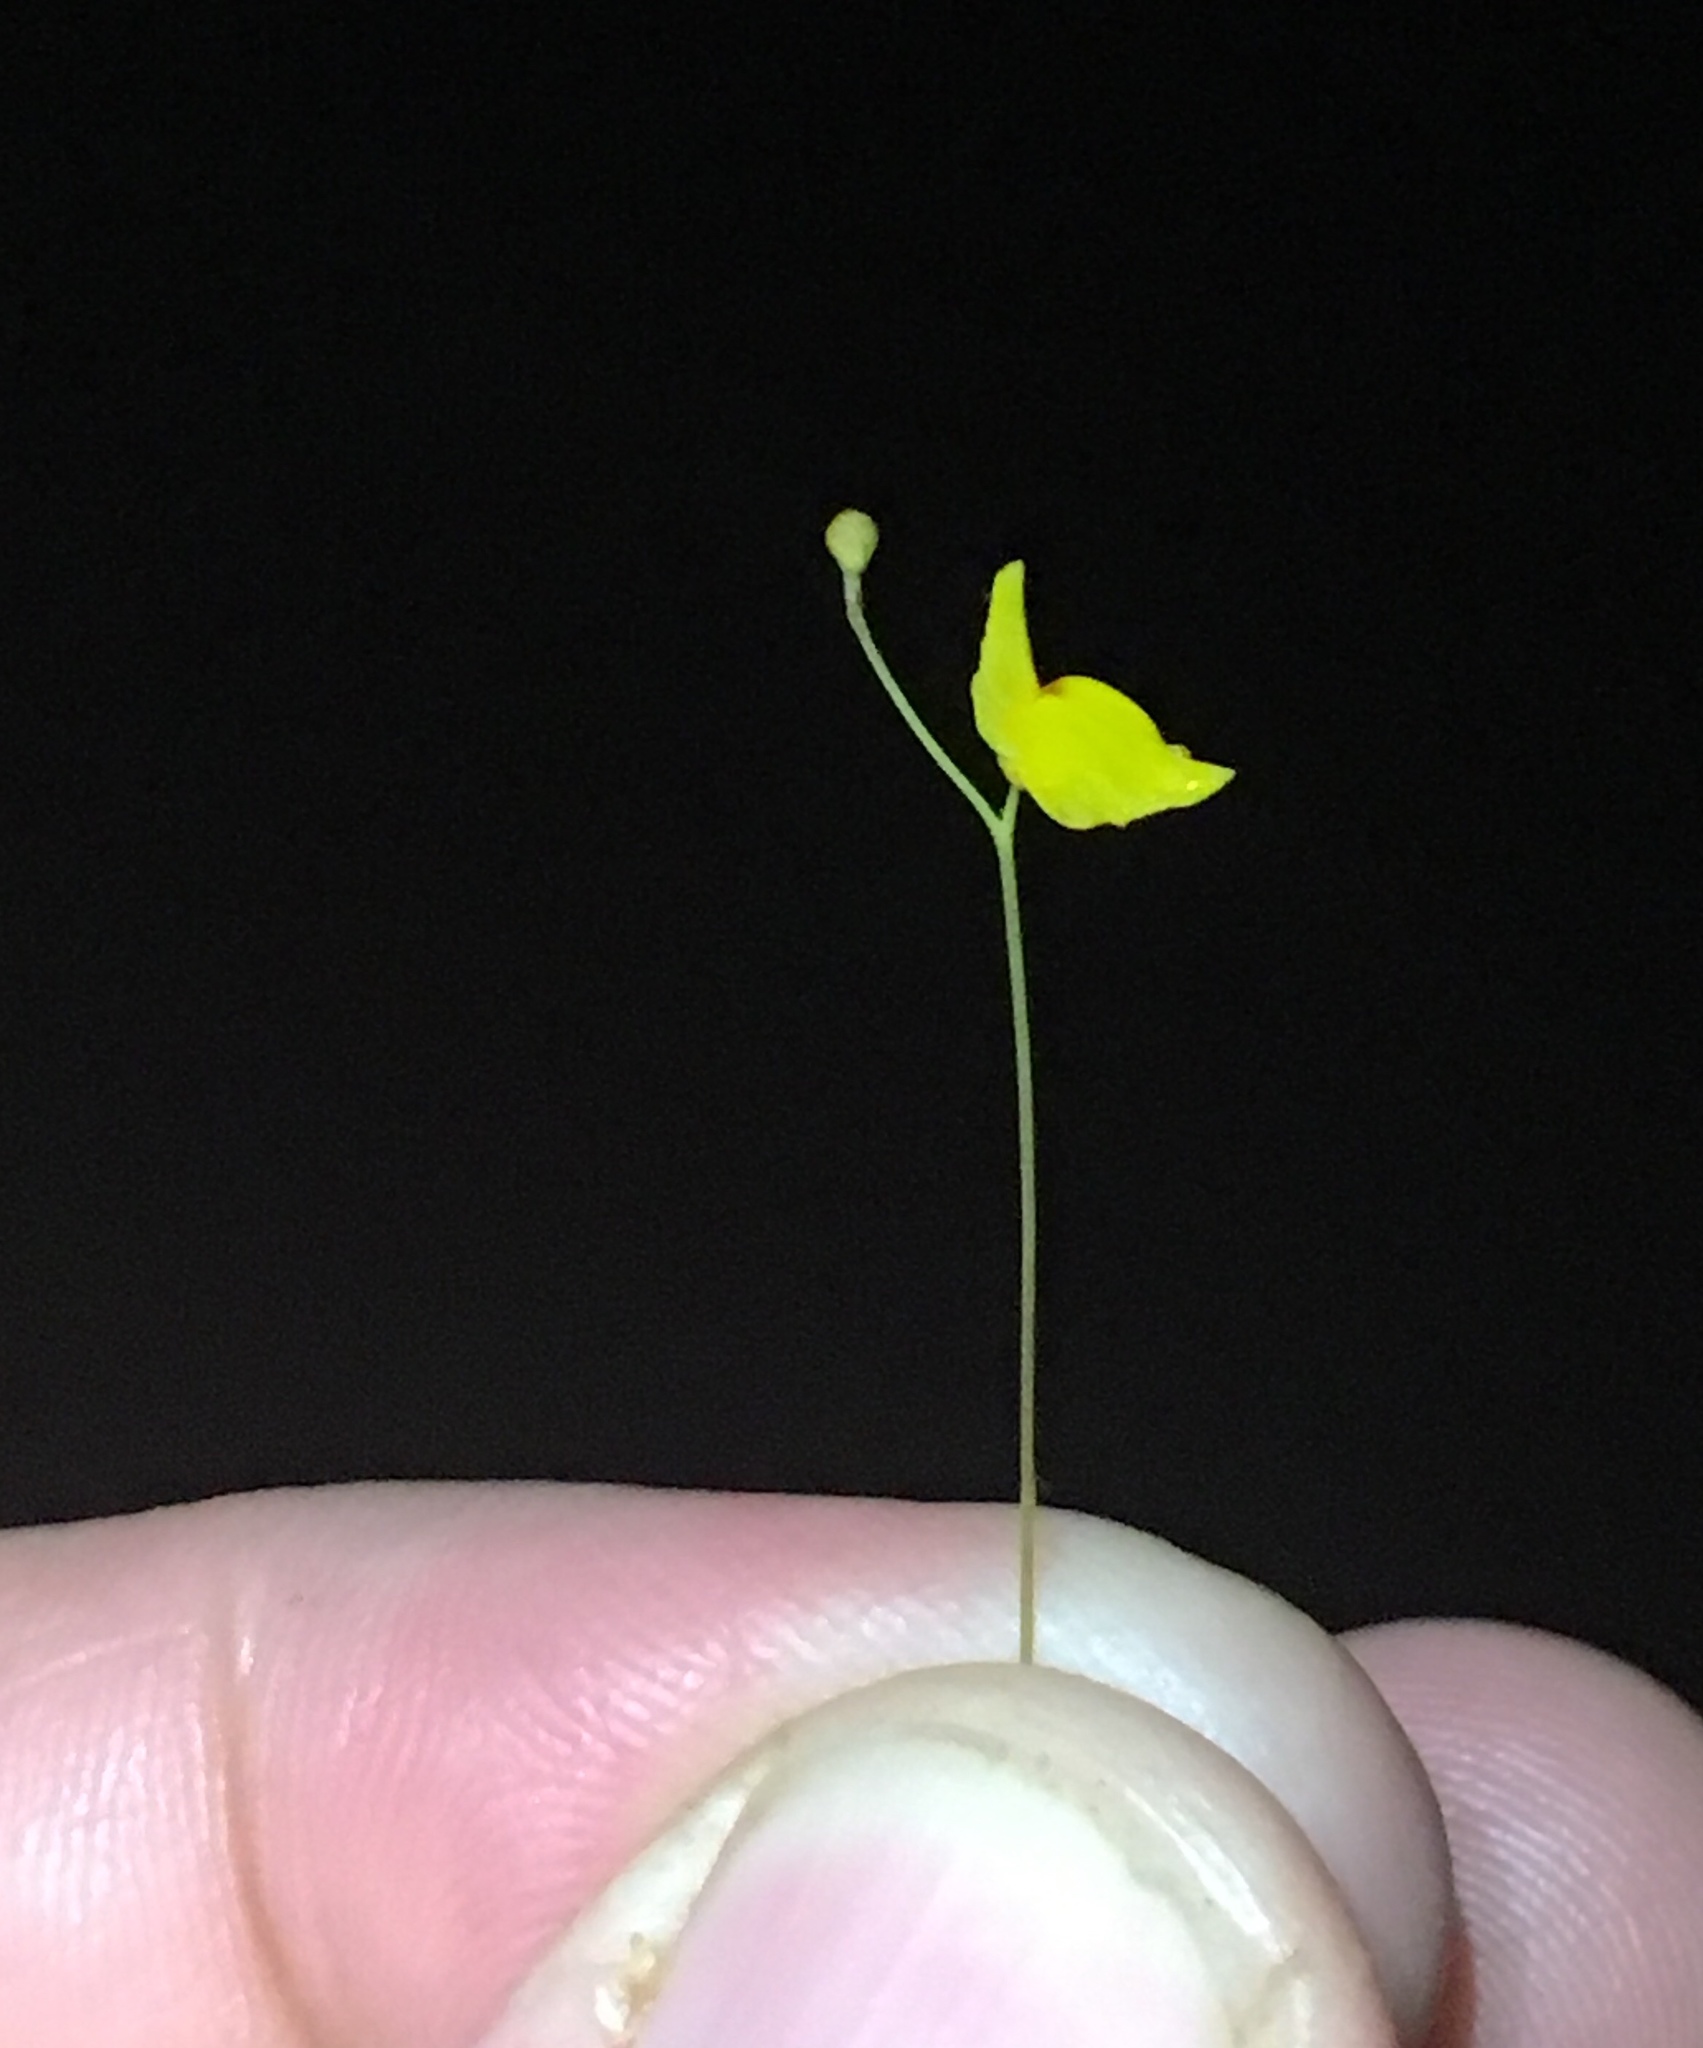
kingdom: Plantae
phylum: Tracheophyta
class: Magnoliopsida
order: Lamiales
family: Lentibulariaceae
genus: Utricularia
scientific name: Utricularia chiribiquetensis
